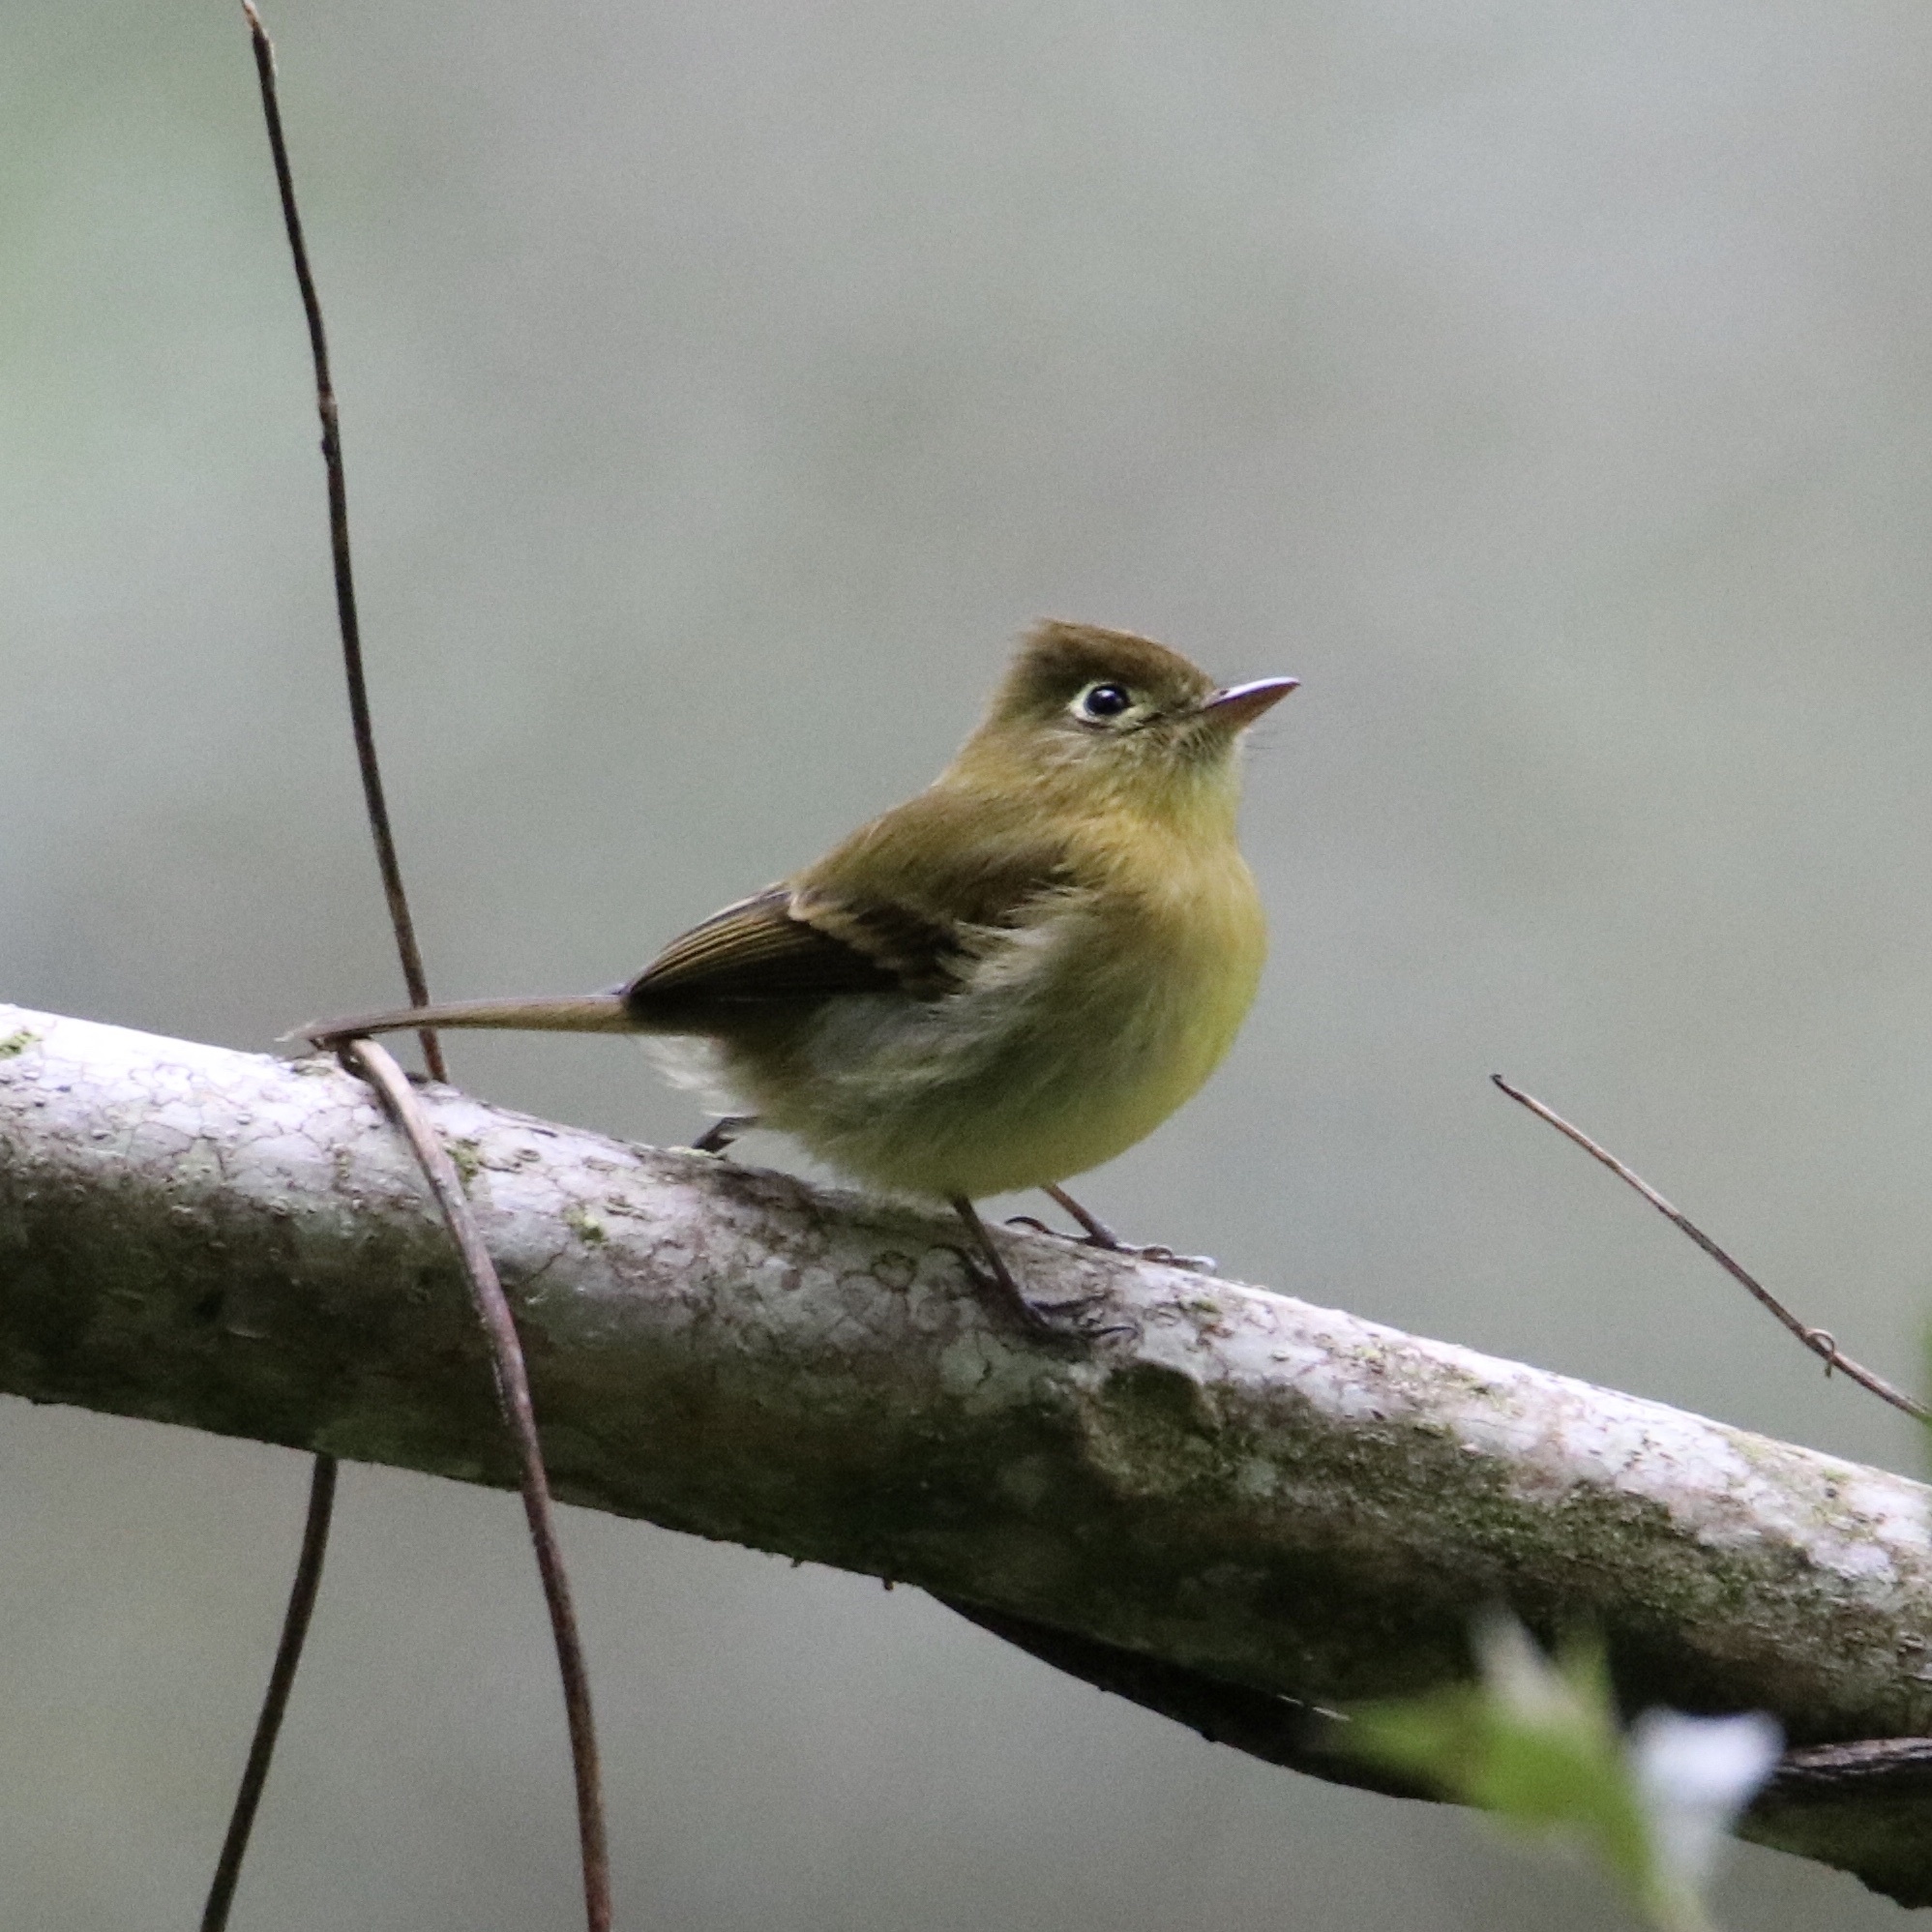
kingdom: Animalia
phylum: Chordata
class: Aves
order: Passeriformes
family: Tyrannidae
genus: Empidonax
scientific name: Empidonax flavescens
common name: Yellowish flycatcher
